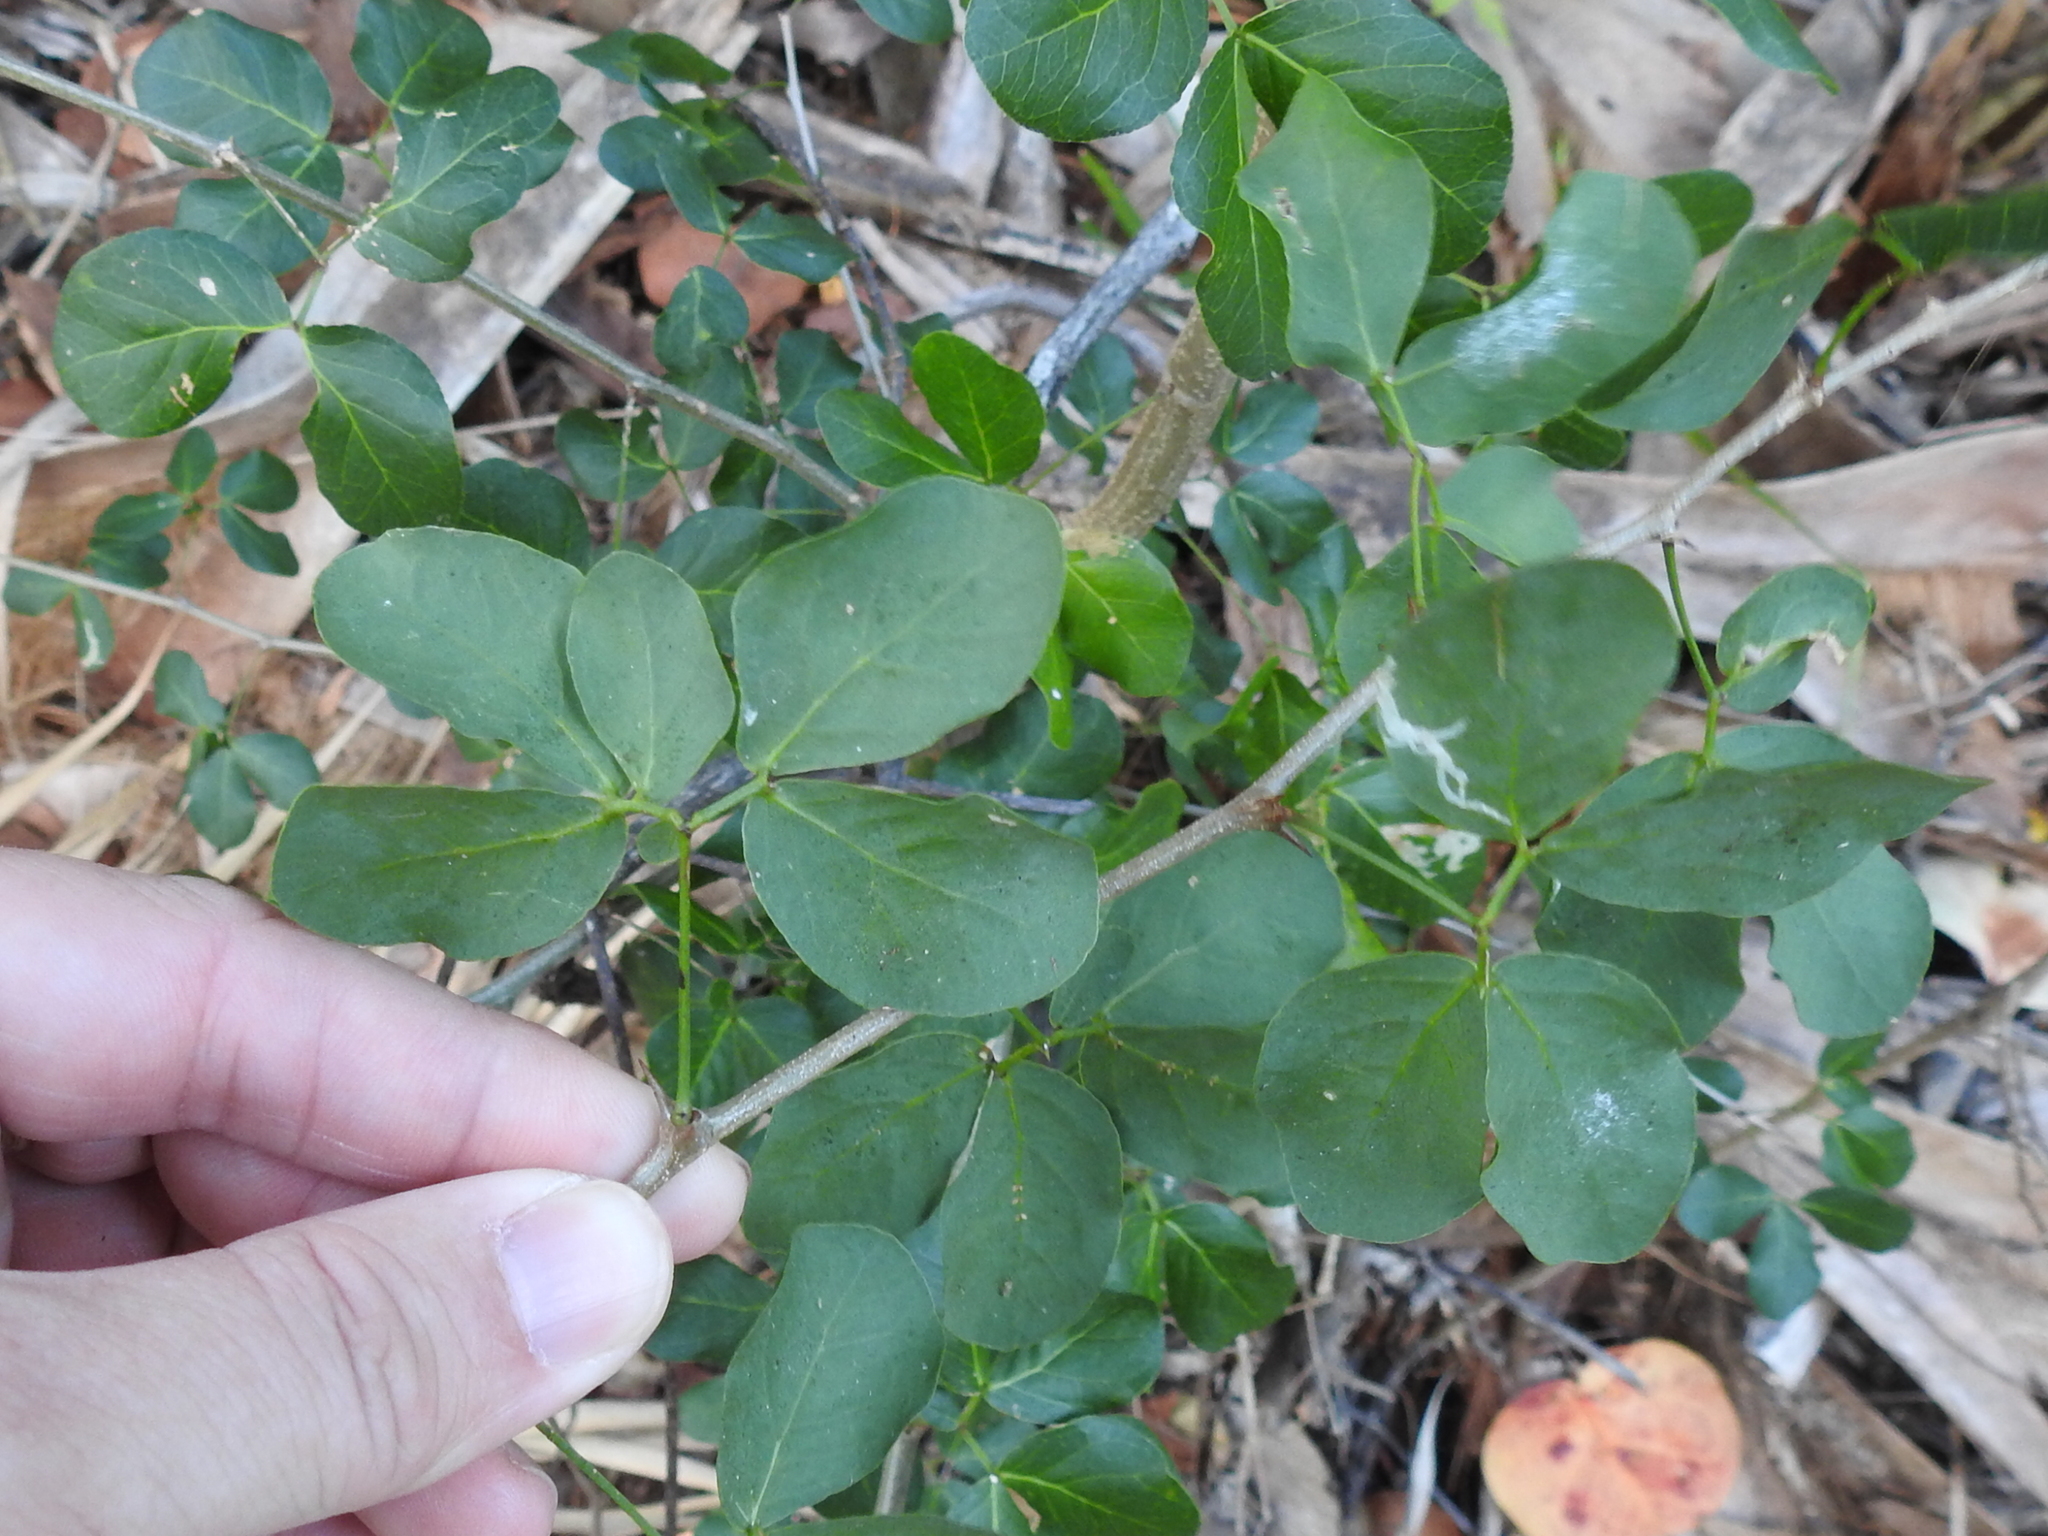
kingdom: Plantae
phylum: Tracheophyta
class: Magnoliopsida
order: Fabales
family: Fabaceae
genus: Pithecellobium
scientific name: Pithecellobium unguis-cati
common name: Cat's-claw
